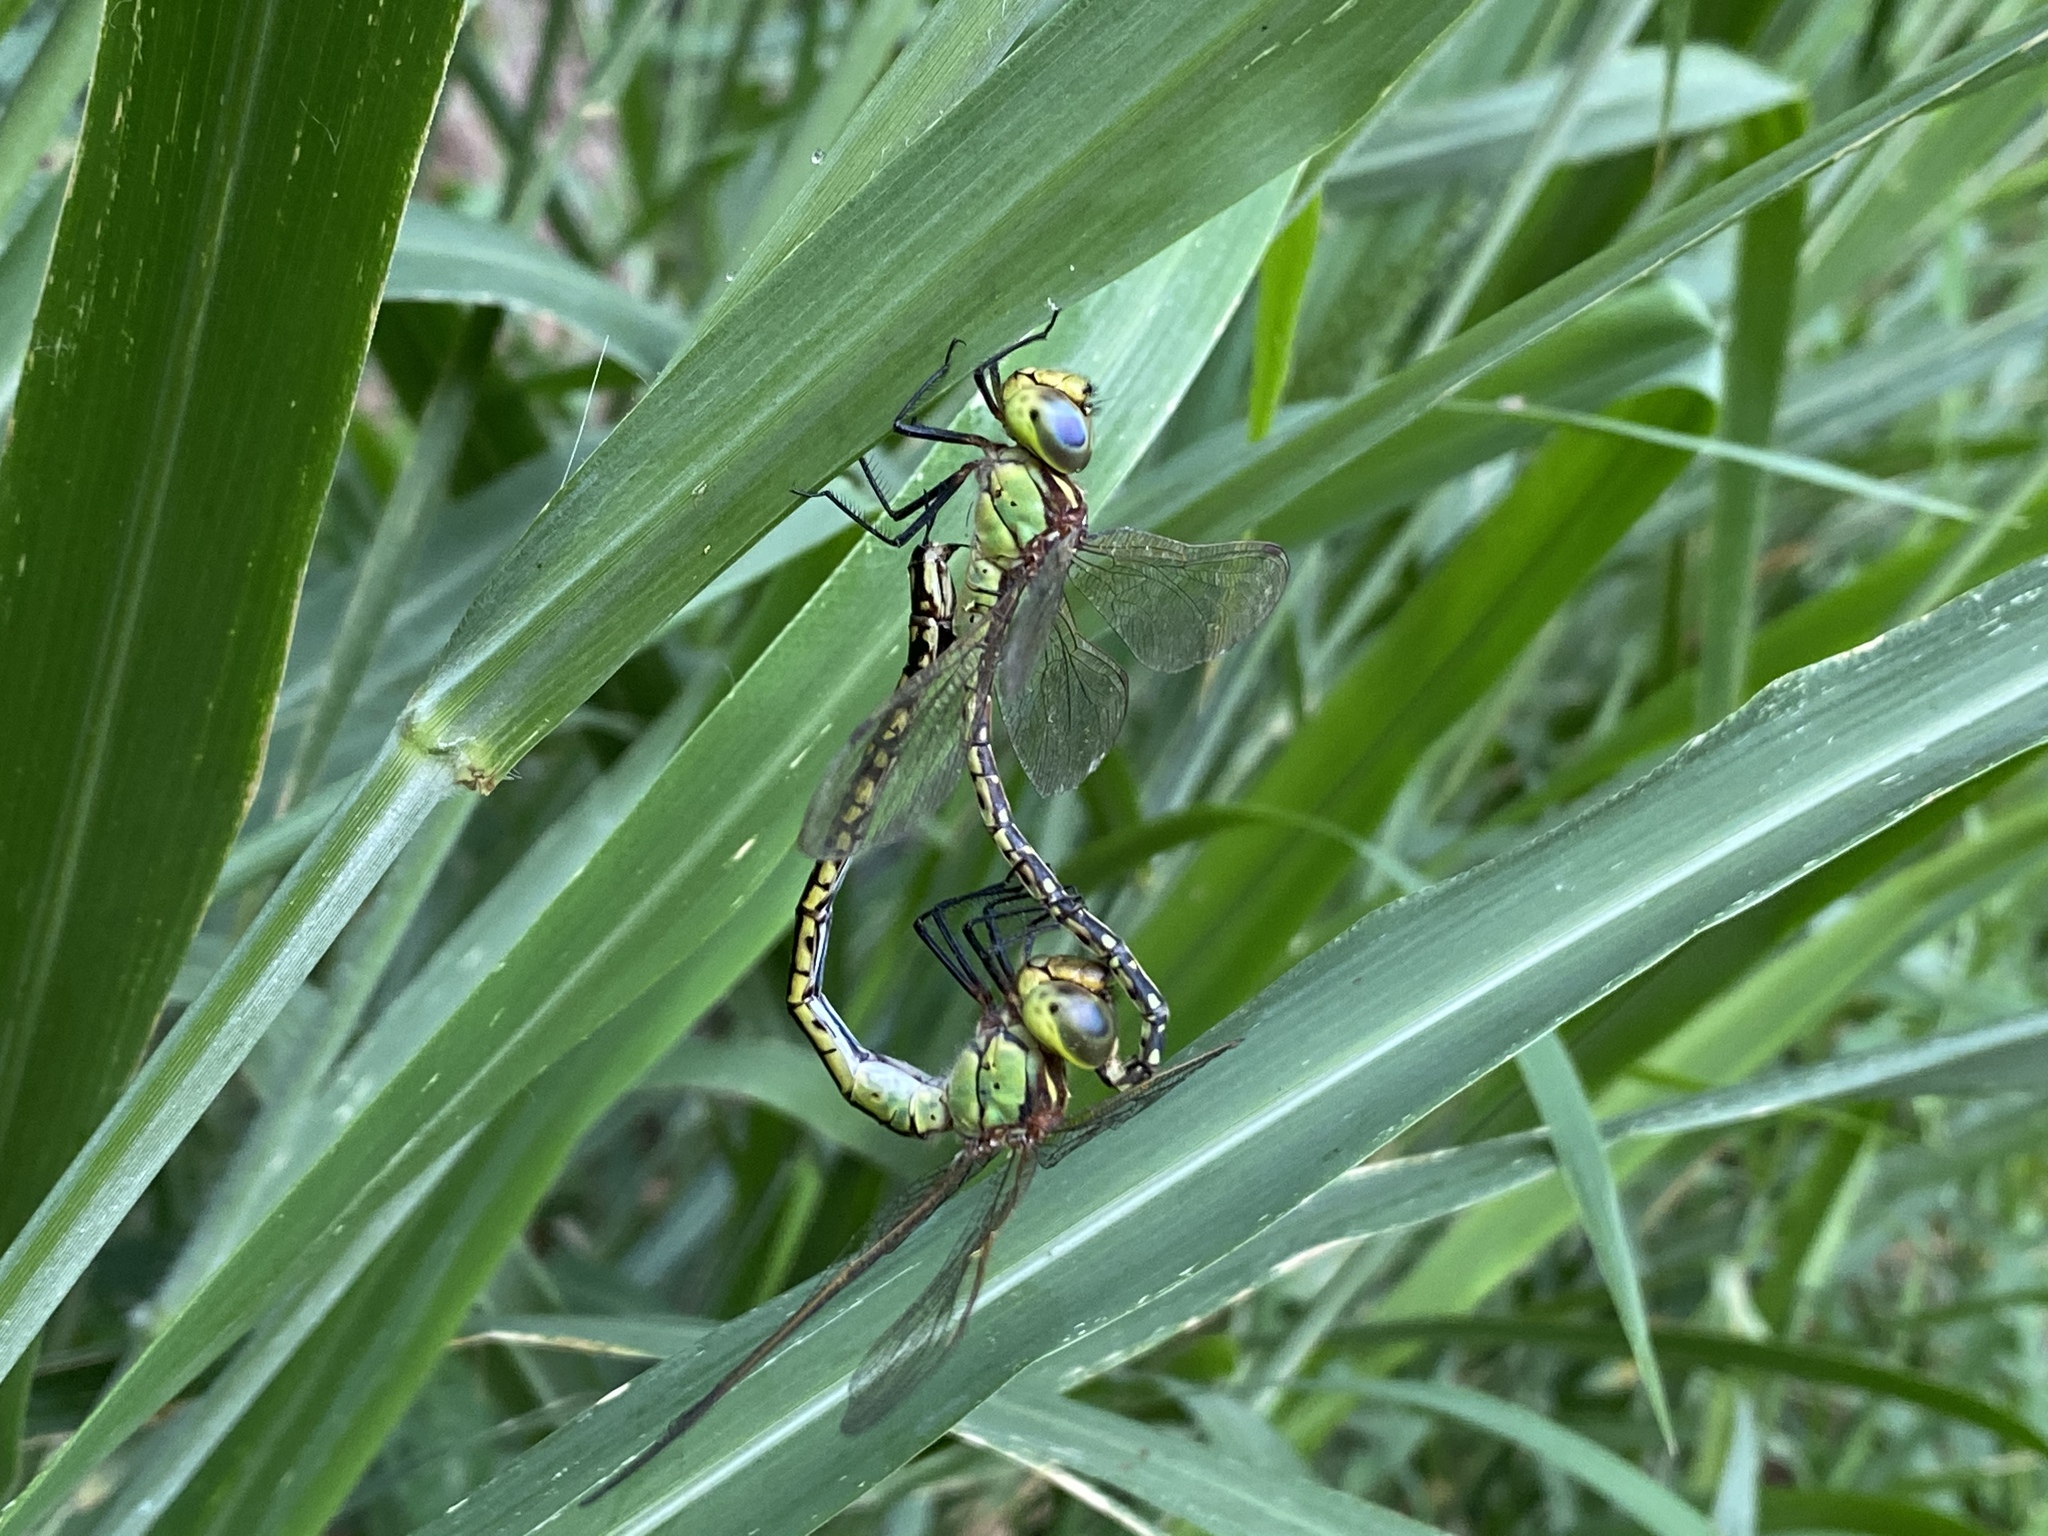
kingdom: Animalia
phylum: Arthropoda
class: Insecta
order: Odonata
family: Aeshnidae
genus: Austrogynacantha
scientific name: Austrogynacantha heterogena
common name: Australian duskhawker
